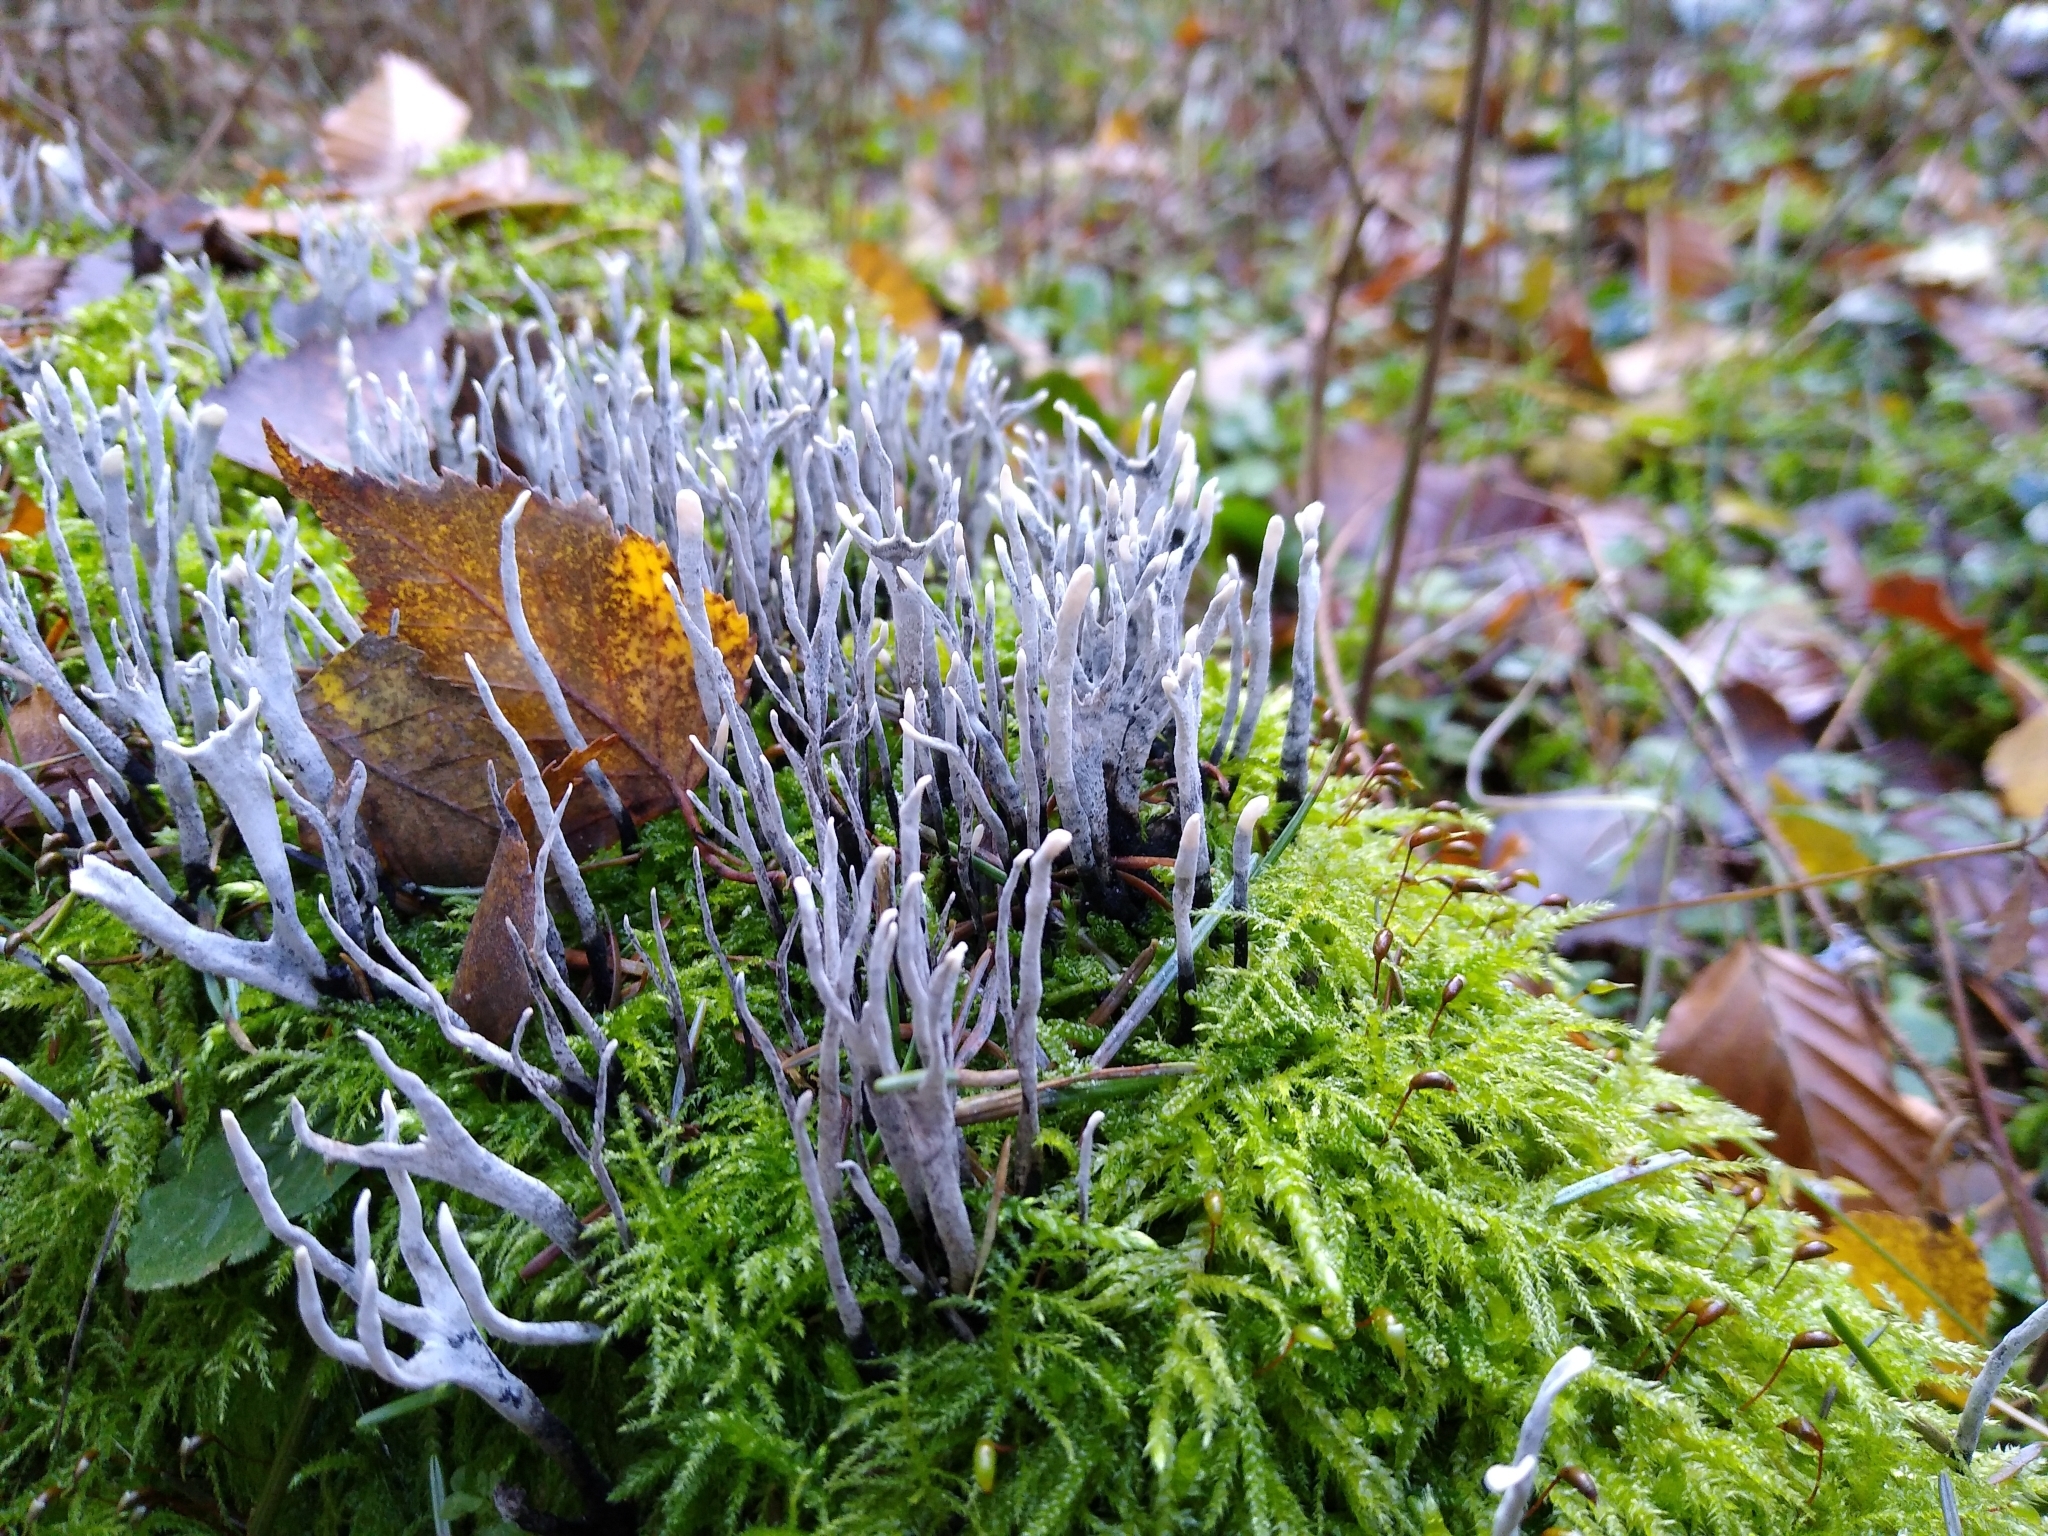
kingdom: Fungi
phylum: Ascomycota
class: Sordariomycetes
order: Xylariales
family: Xylariaceae
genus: Xylaria
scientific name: Xylaria hypoxylon
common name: Candle-snuff fungus
